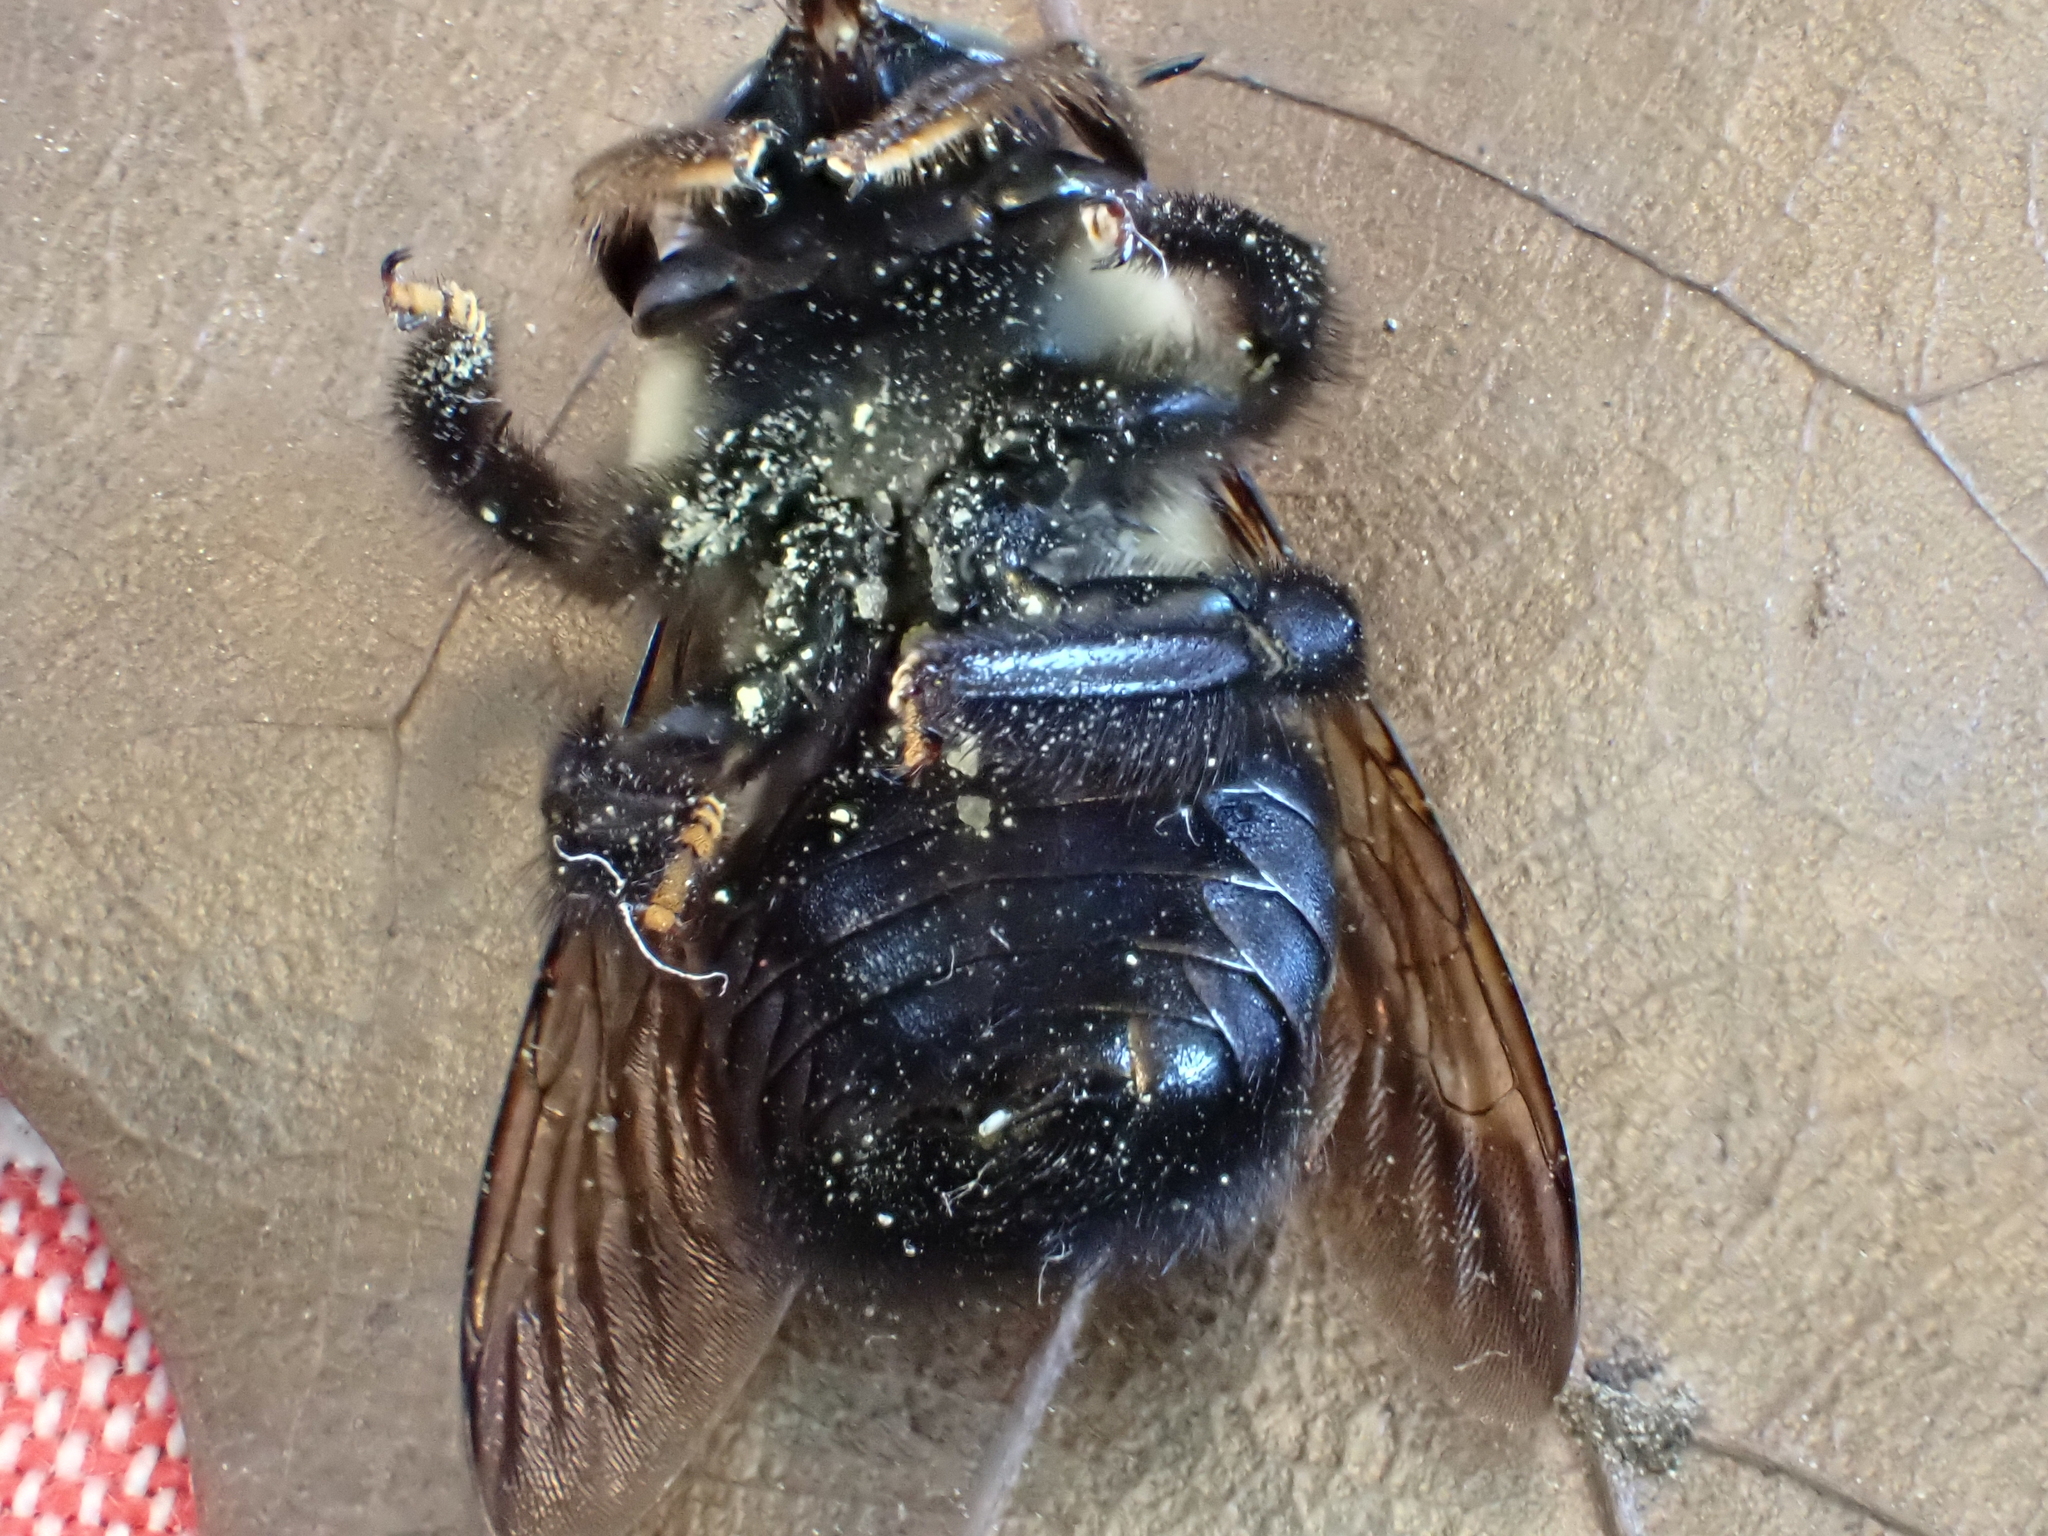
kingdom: Animalia
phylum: Arthropoda
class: Insecta
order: Hymenoptera
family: Apidae
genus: Xylocopa
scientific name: Xylocopa virginica
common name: Carpenter bee
